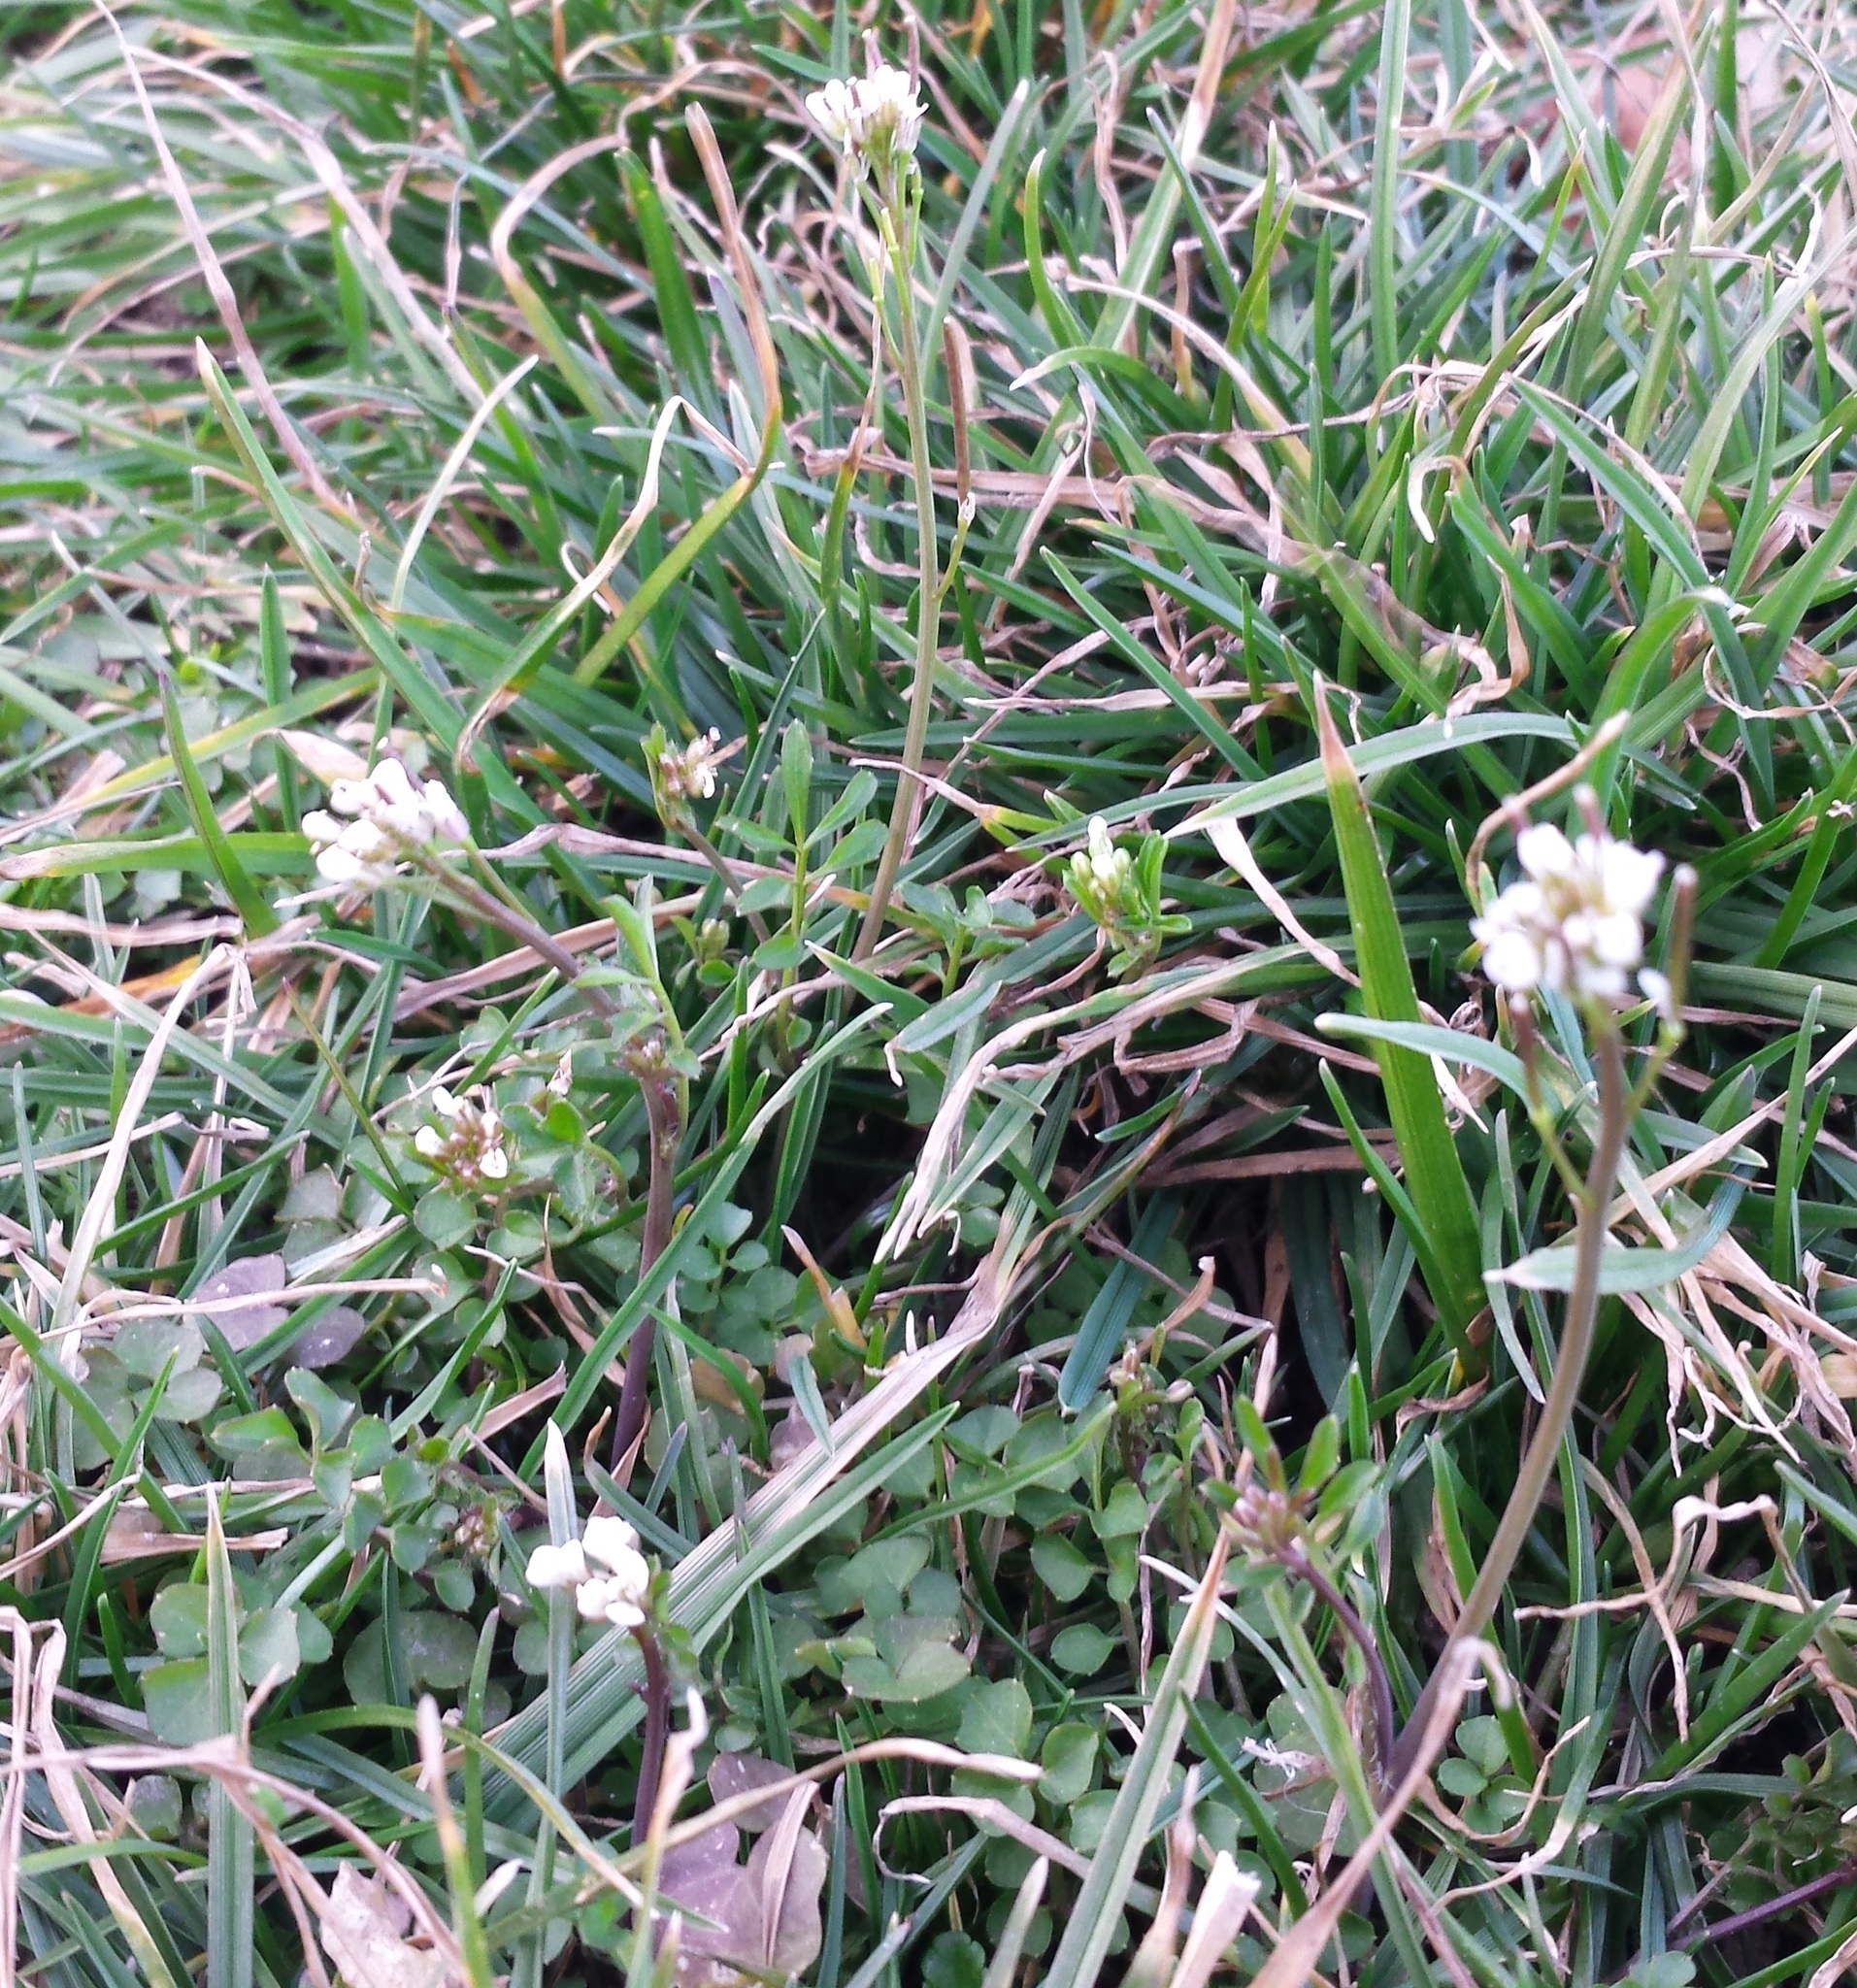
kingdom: Plantae
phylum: Tracheophyta
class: Magnoliopsida
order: Brassicales
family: Brassicaceae
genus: Cardamine
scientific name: Cardamine hirsuta
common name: Hairy bittercress
